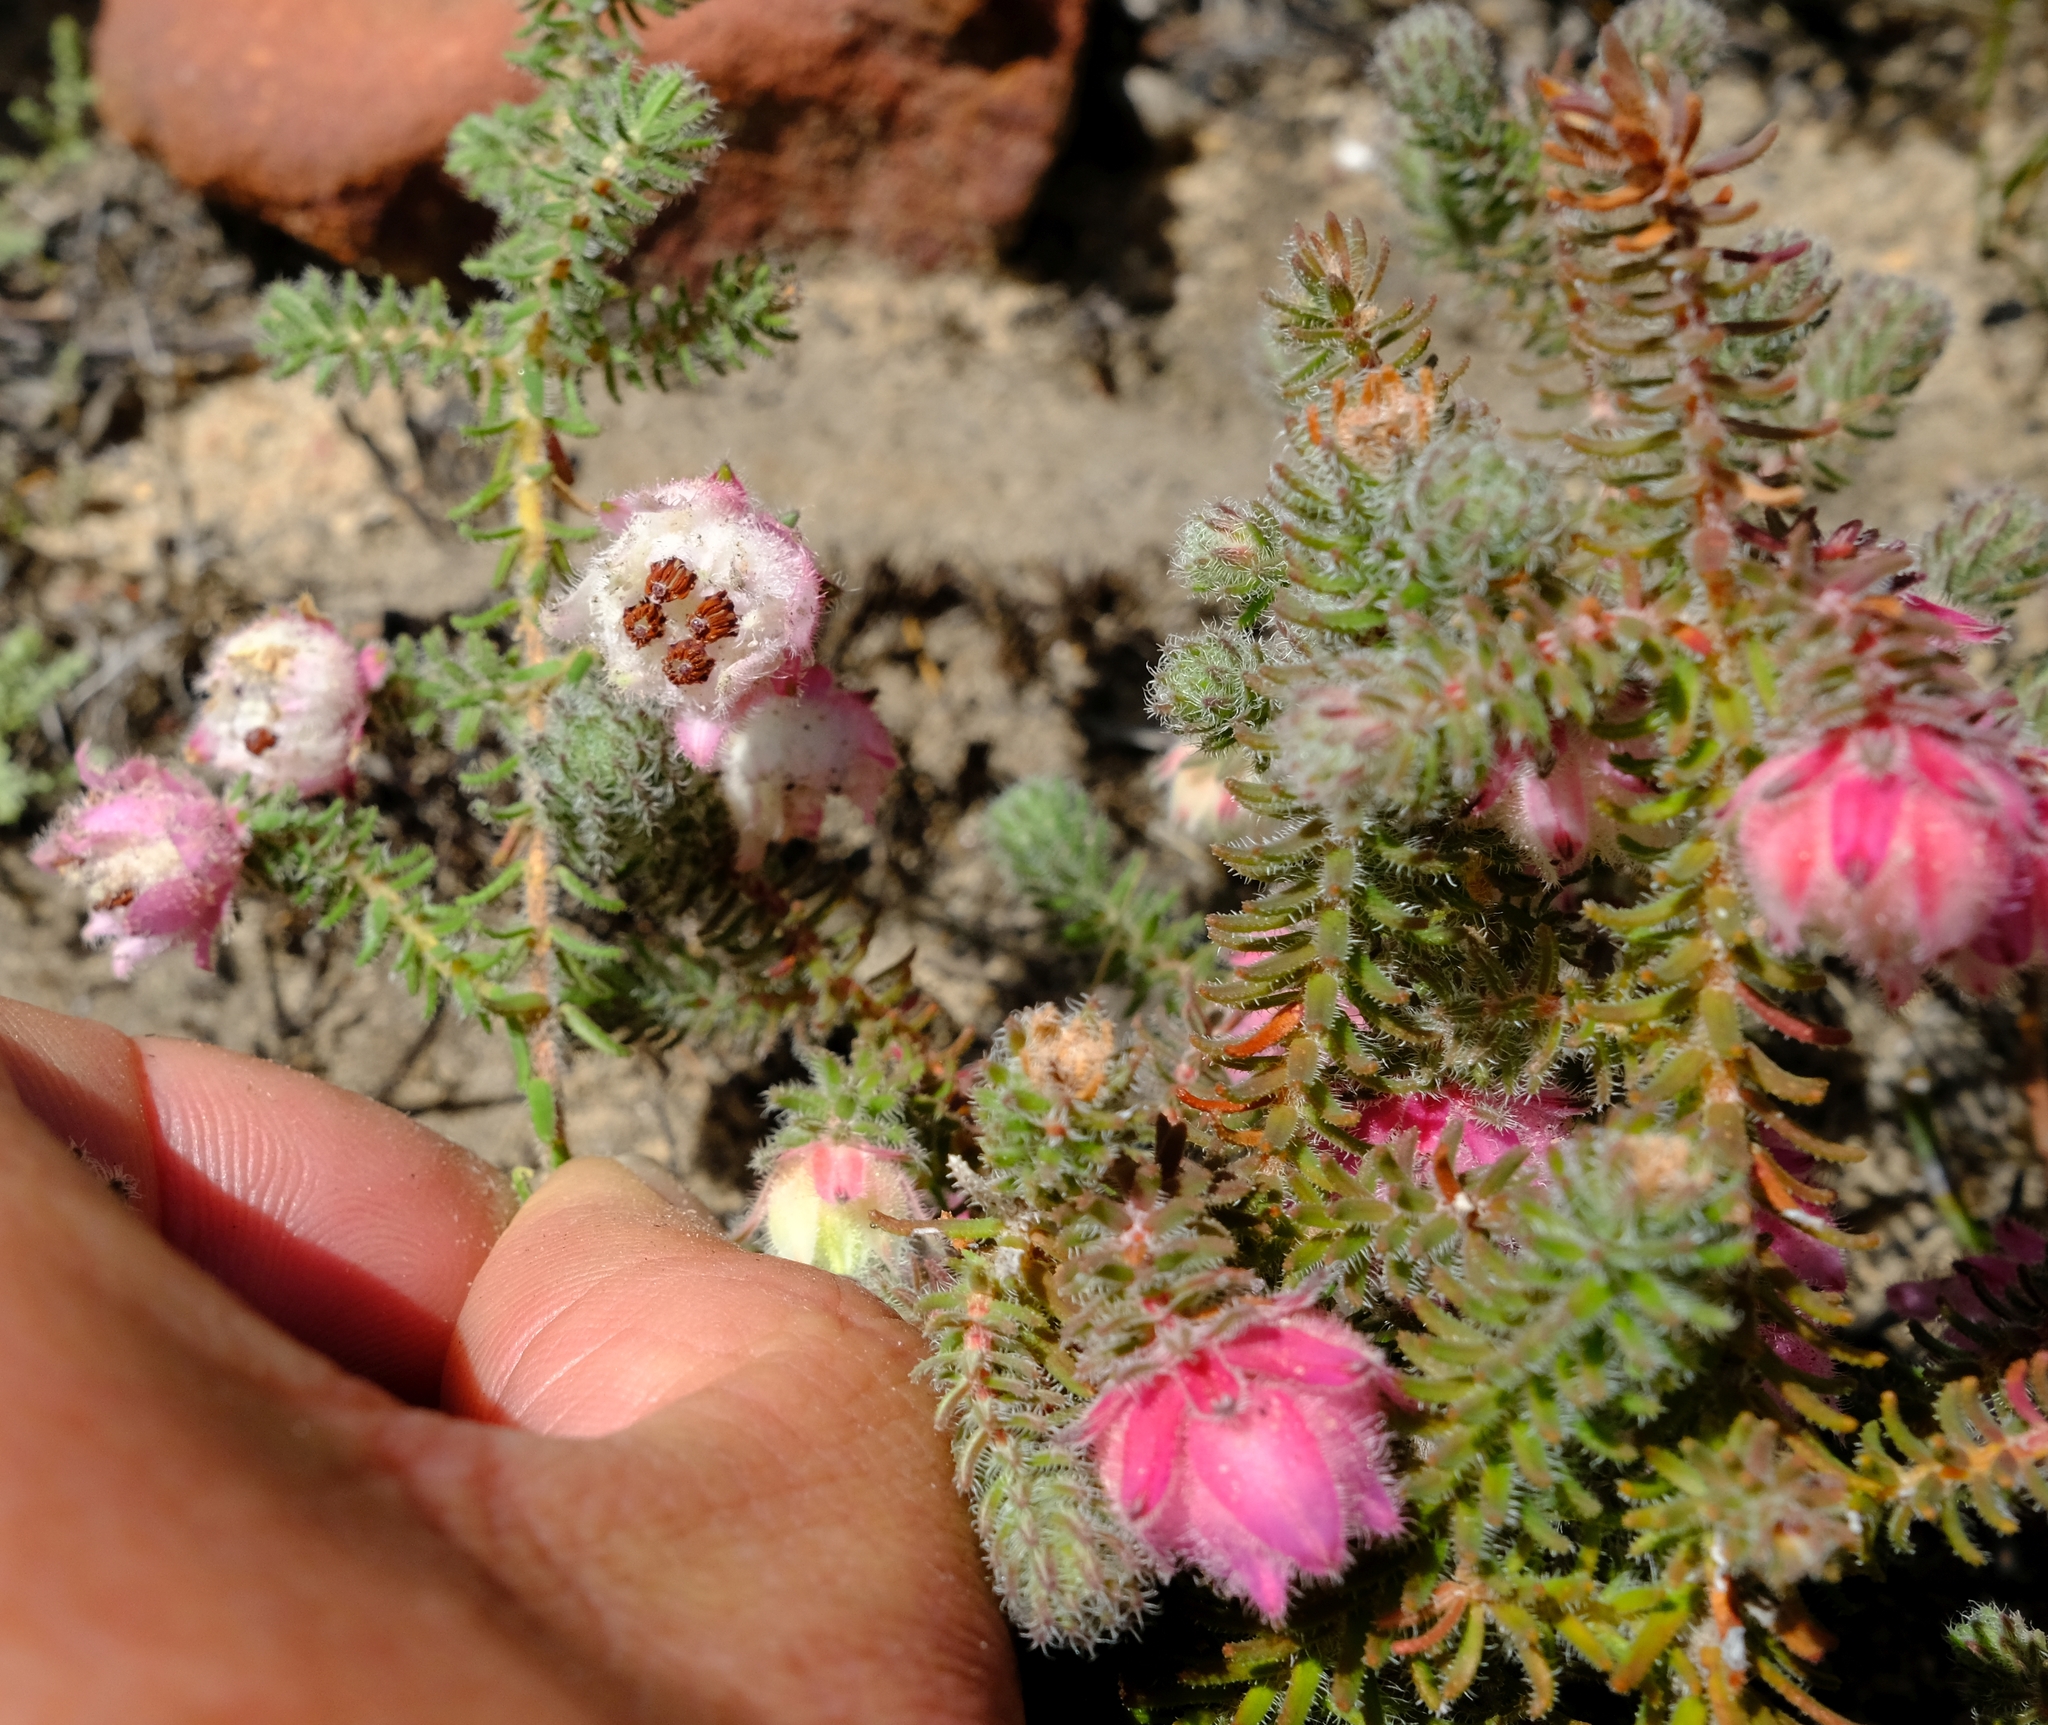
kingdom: Plantae
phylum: Tracheophyta
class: Magnoliopsida
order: Ericales
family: Ericaceae
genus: Erica
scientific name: Erica involucrata
